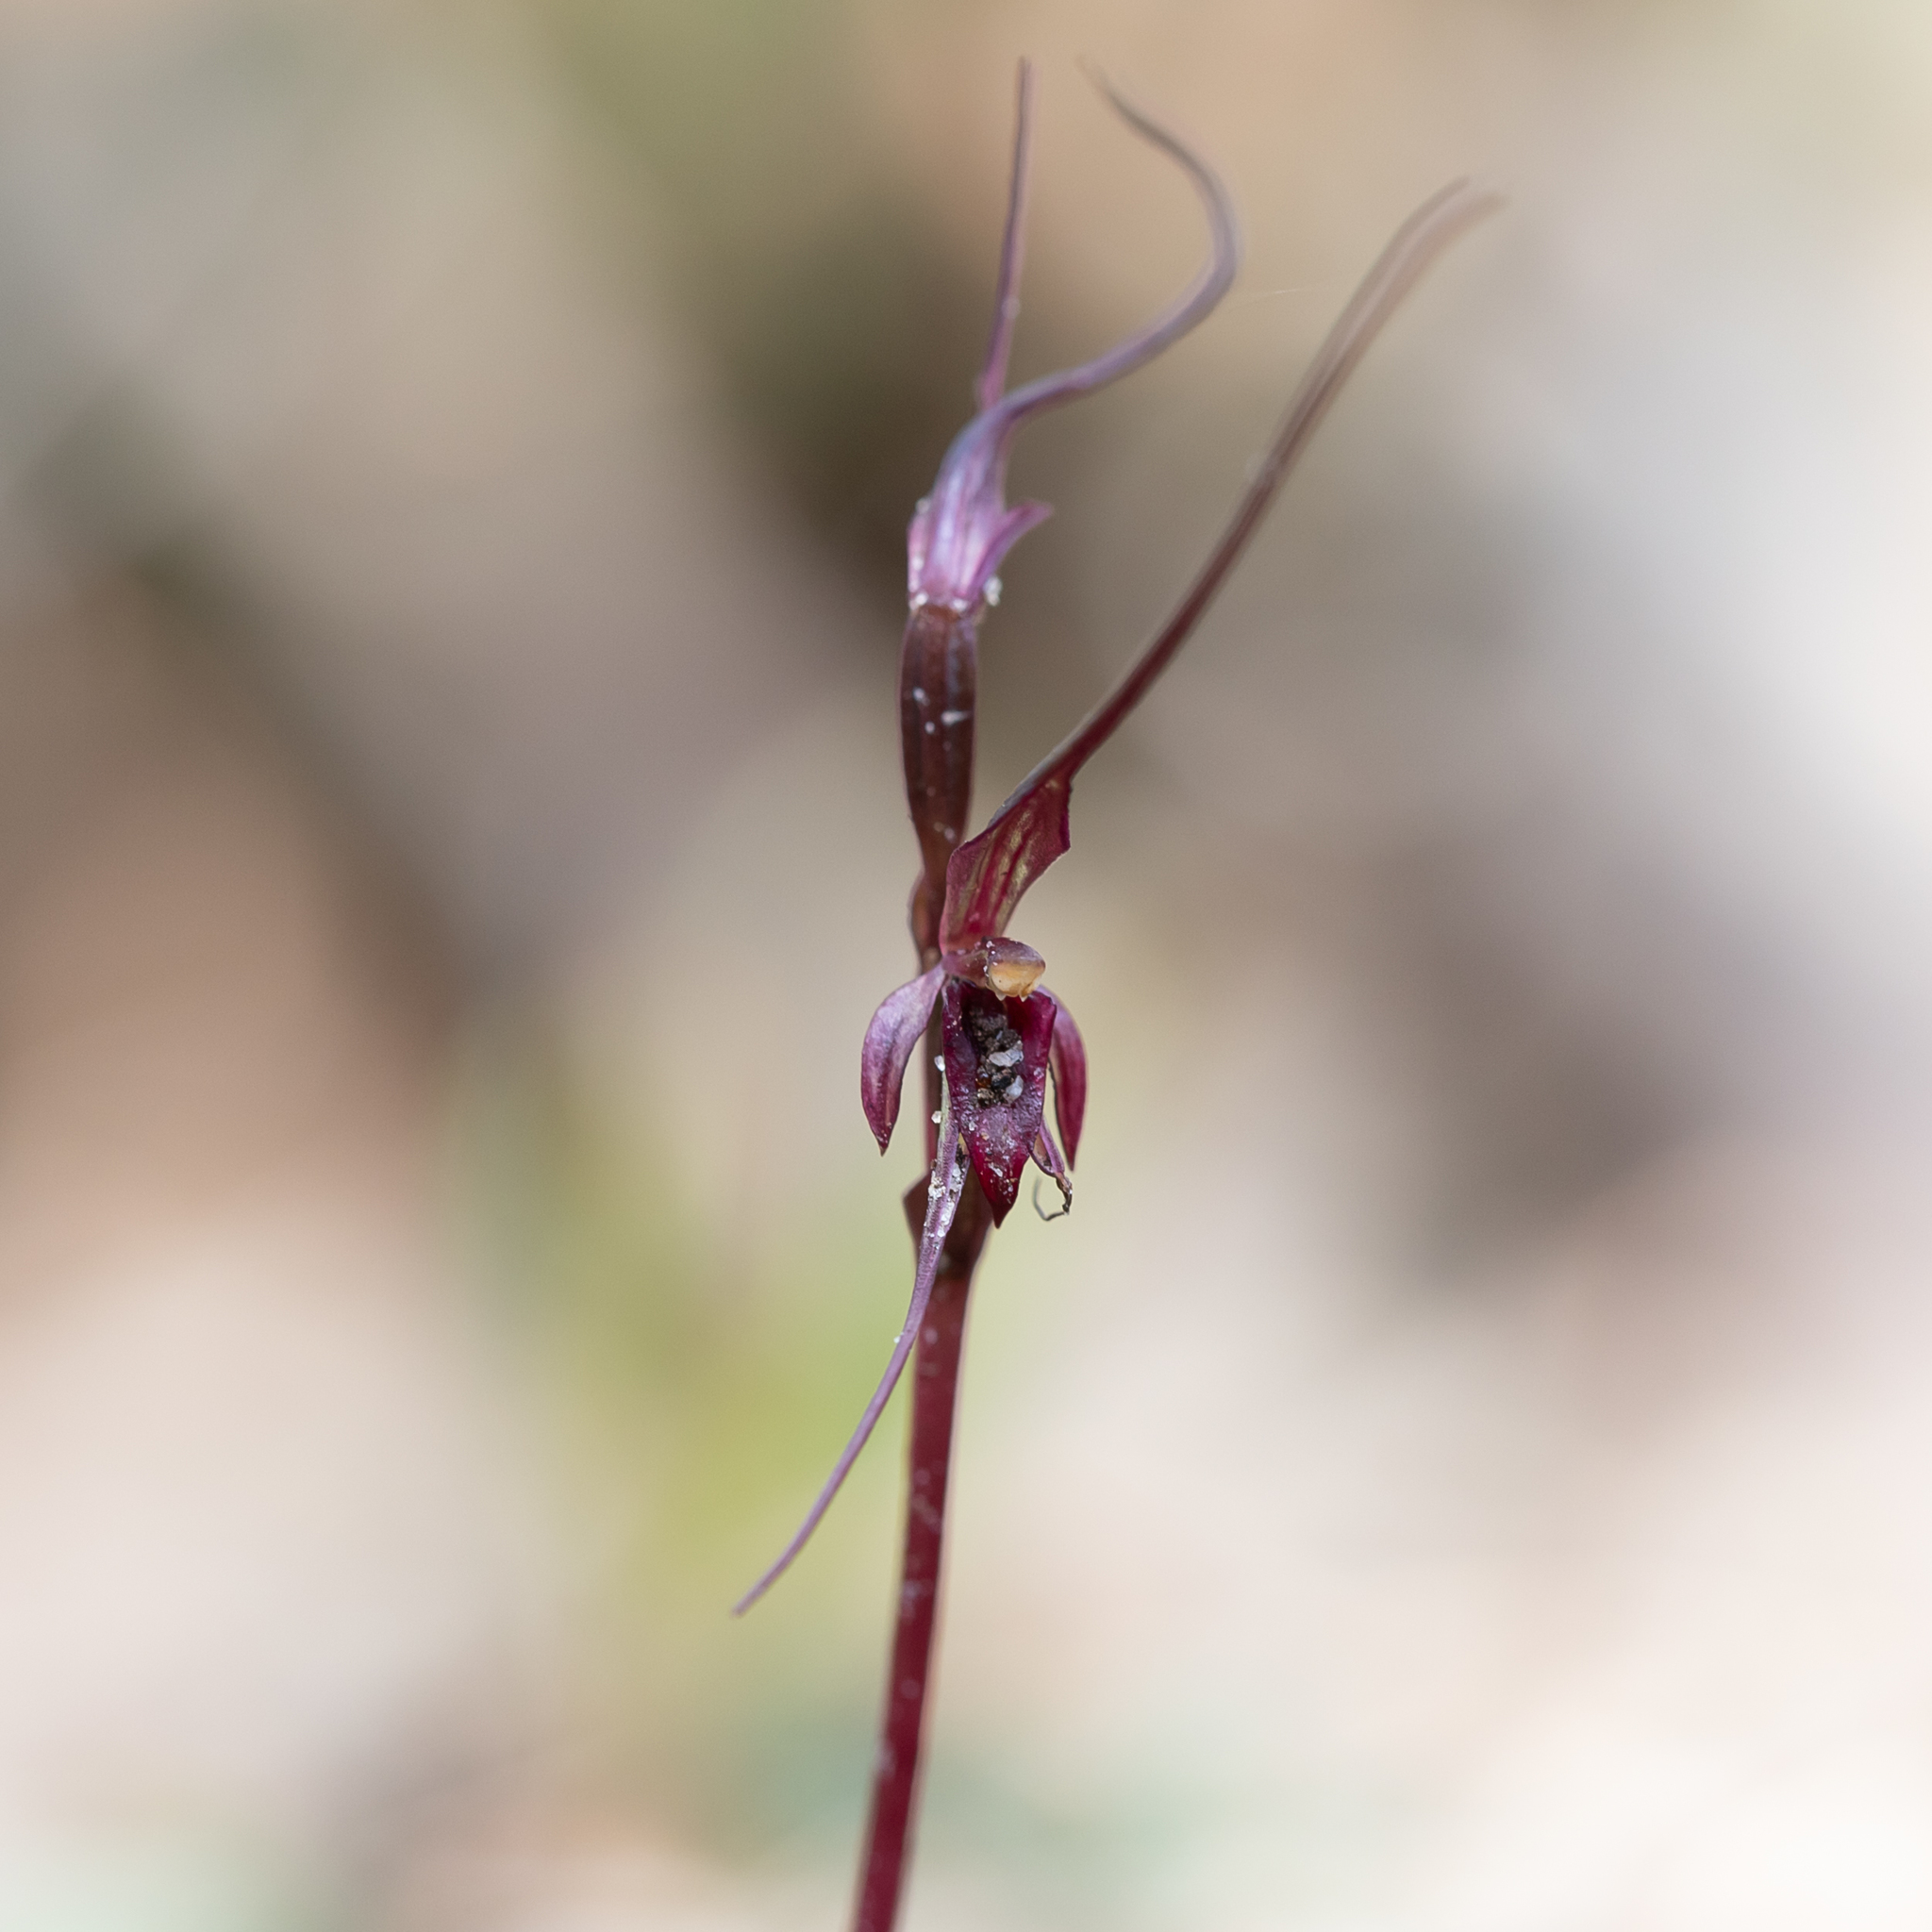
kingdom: Plantae
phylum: Tracheophyta
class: Liliopsida
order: Asparagales
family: Orchidaceae
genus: Acianthus
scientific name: Acianthus caudatus
